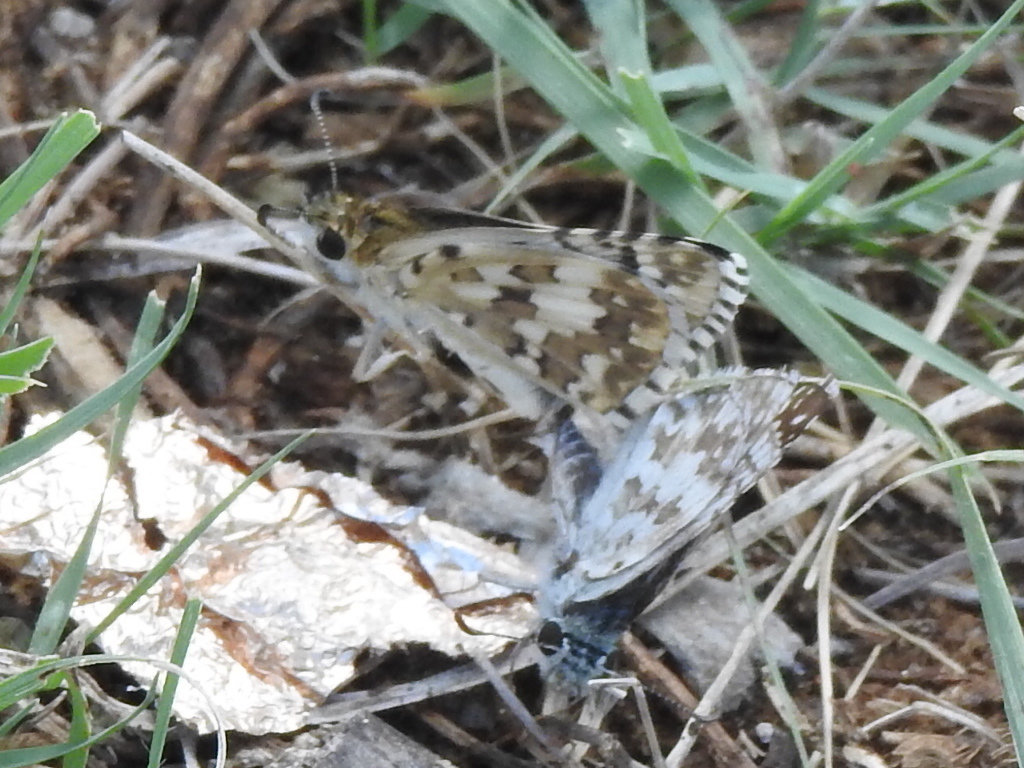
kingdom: Animalia
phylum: Arthropoda
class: Insecta
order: Lepidoptera
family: Hesperiidae
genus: Burnsius
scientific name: Burnsius
